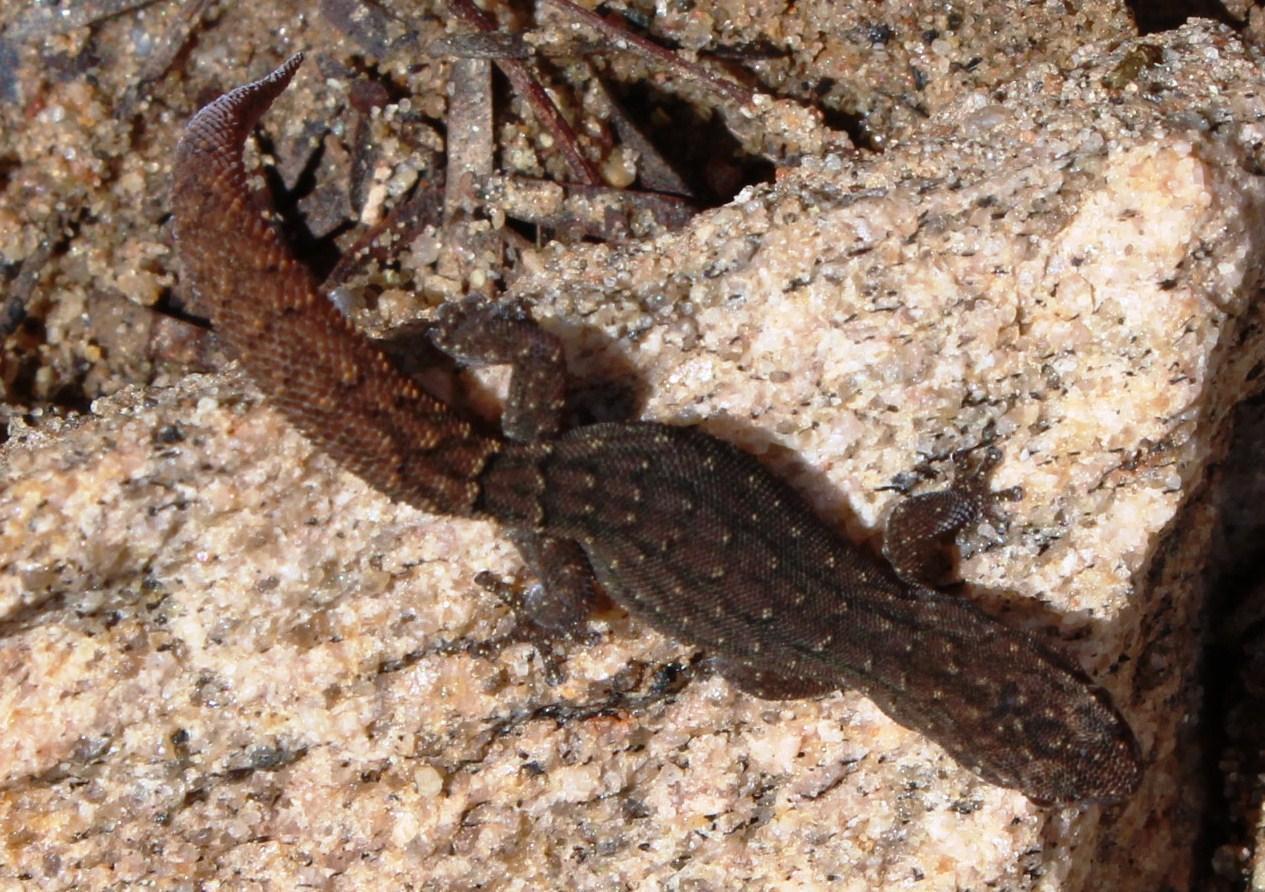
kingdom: Animalia
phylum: Chordata
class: Squamata
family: Gekkonidae
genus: Goggia
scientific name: Goggia lineata
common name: Striped dwarf leaf-toed gecko
